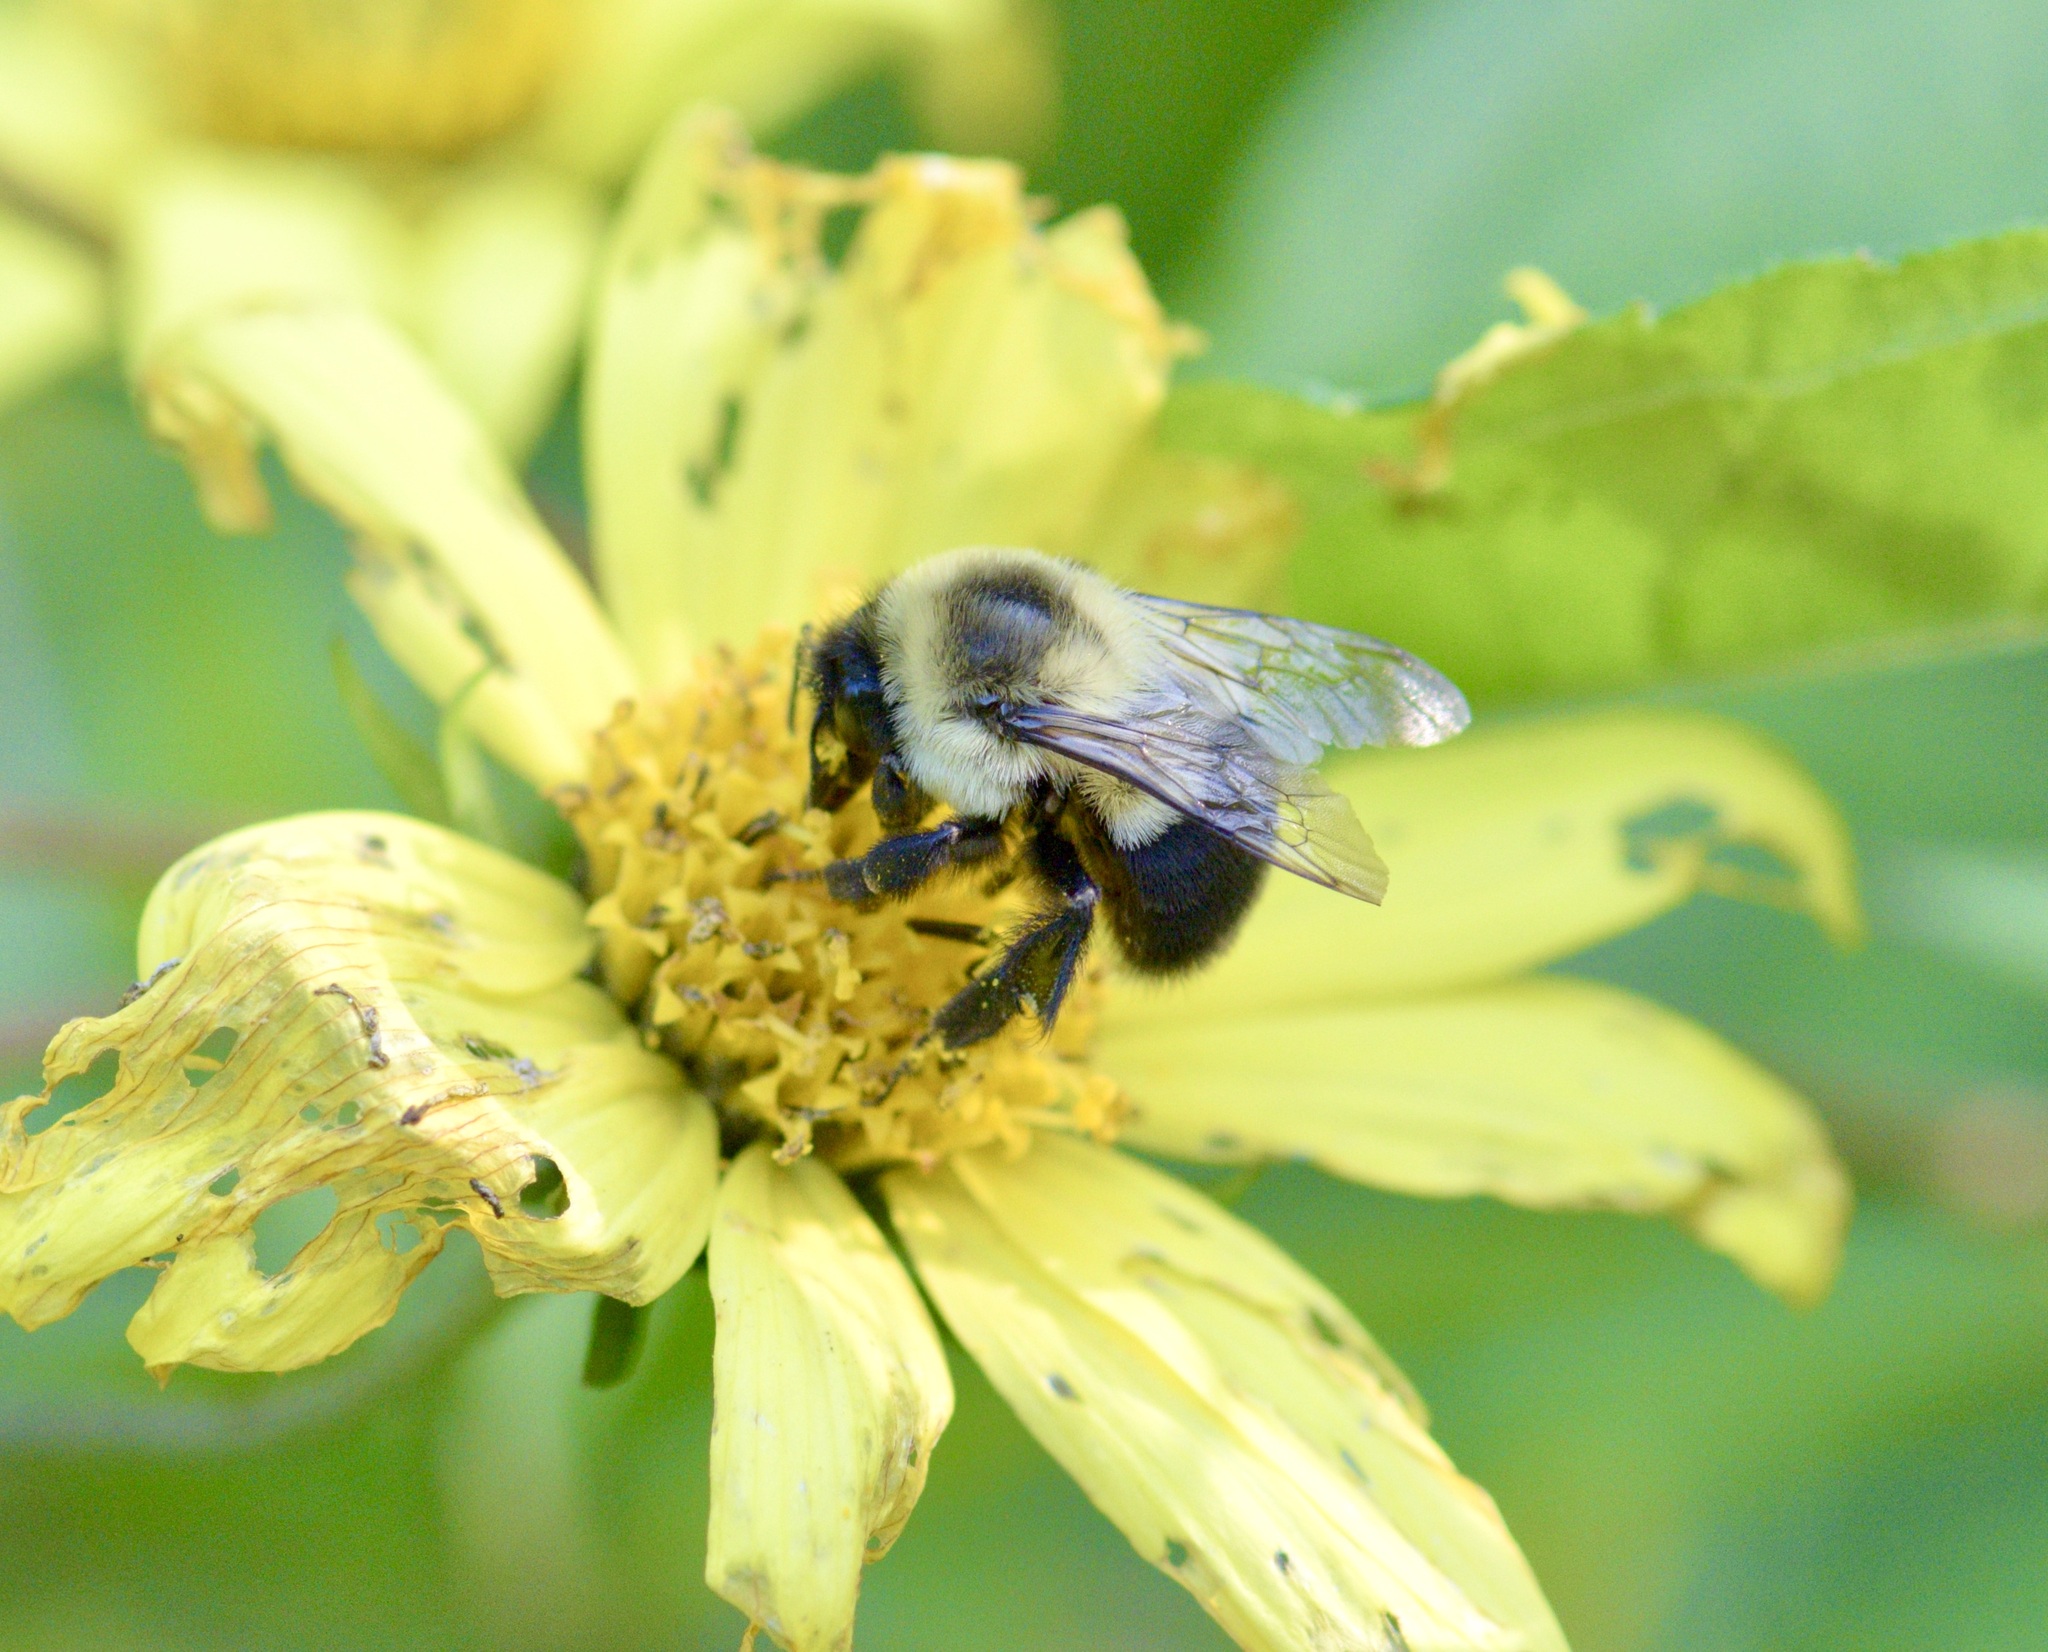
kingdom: Animalia
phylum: Arthropoda
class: Insecta
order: Hymenoptera
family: Apidae
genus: Bombus
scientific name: Bombus impatiens
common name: Common eastern bumble bee
